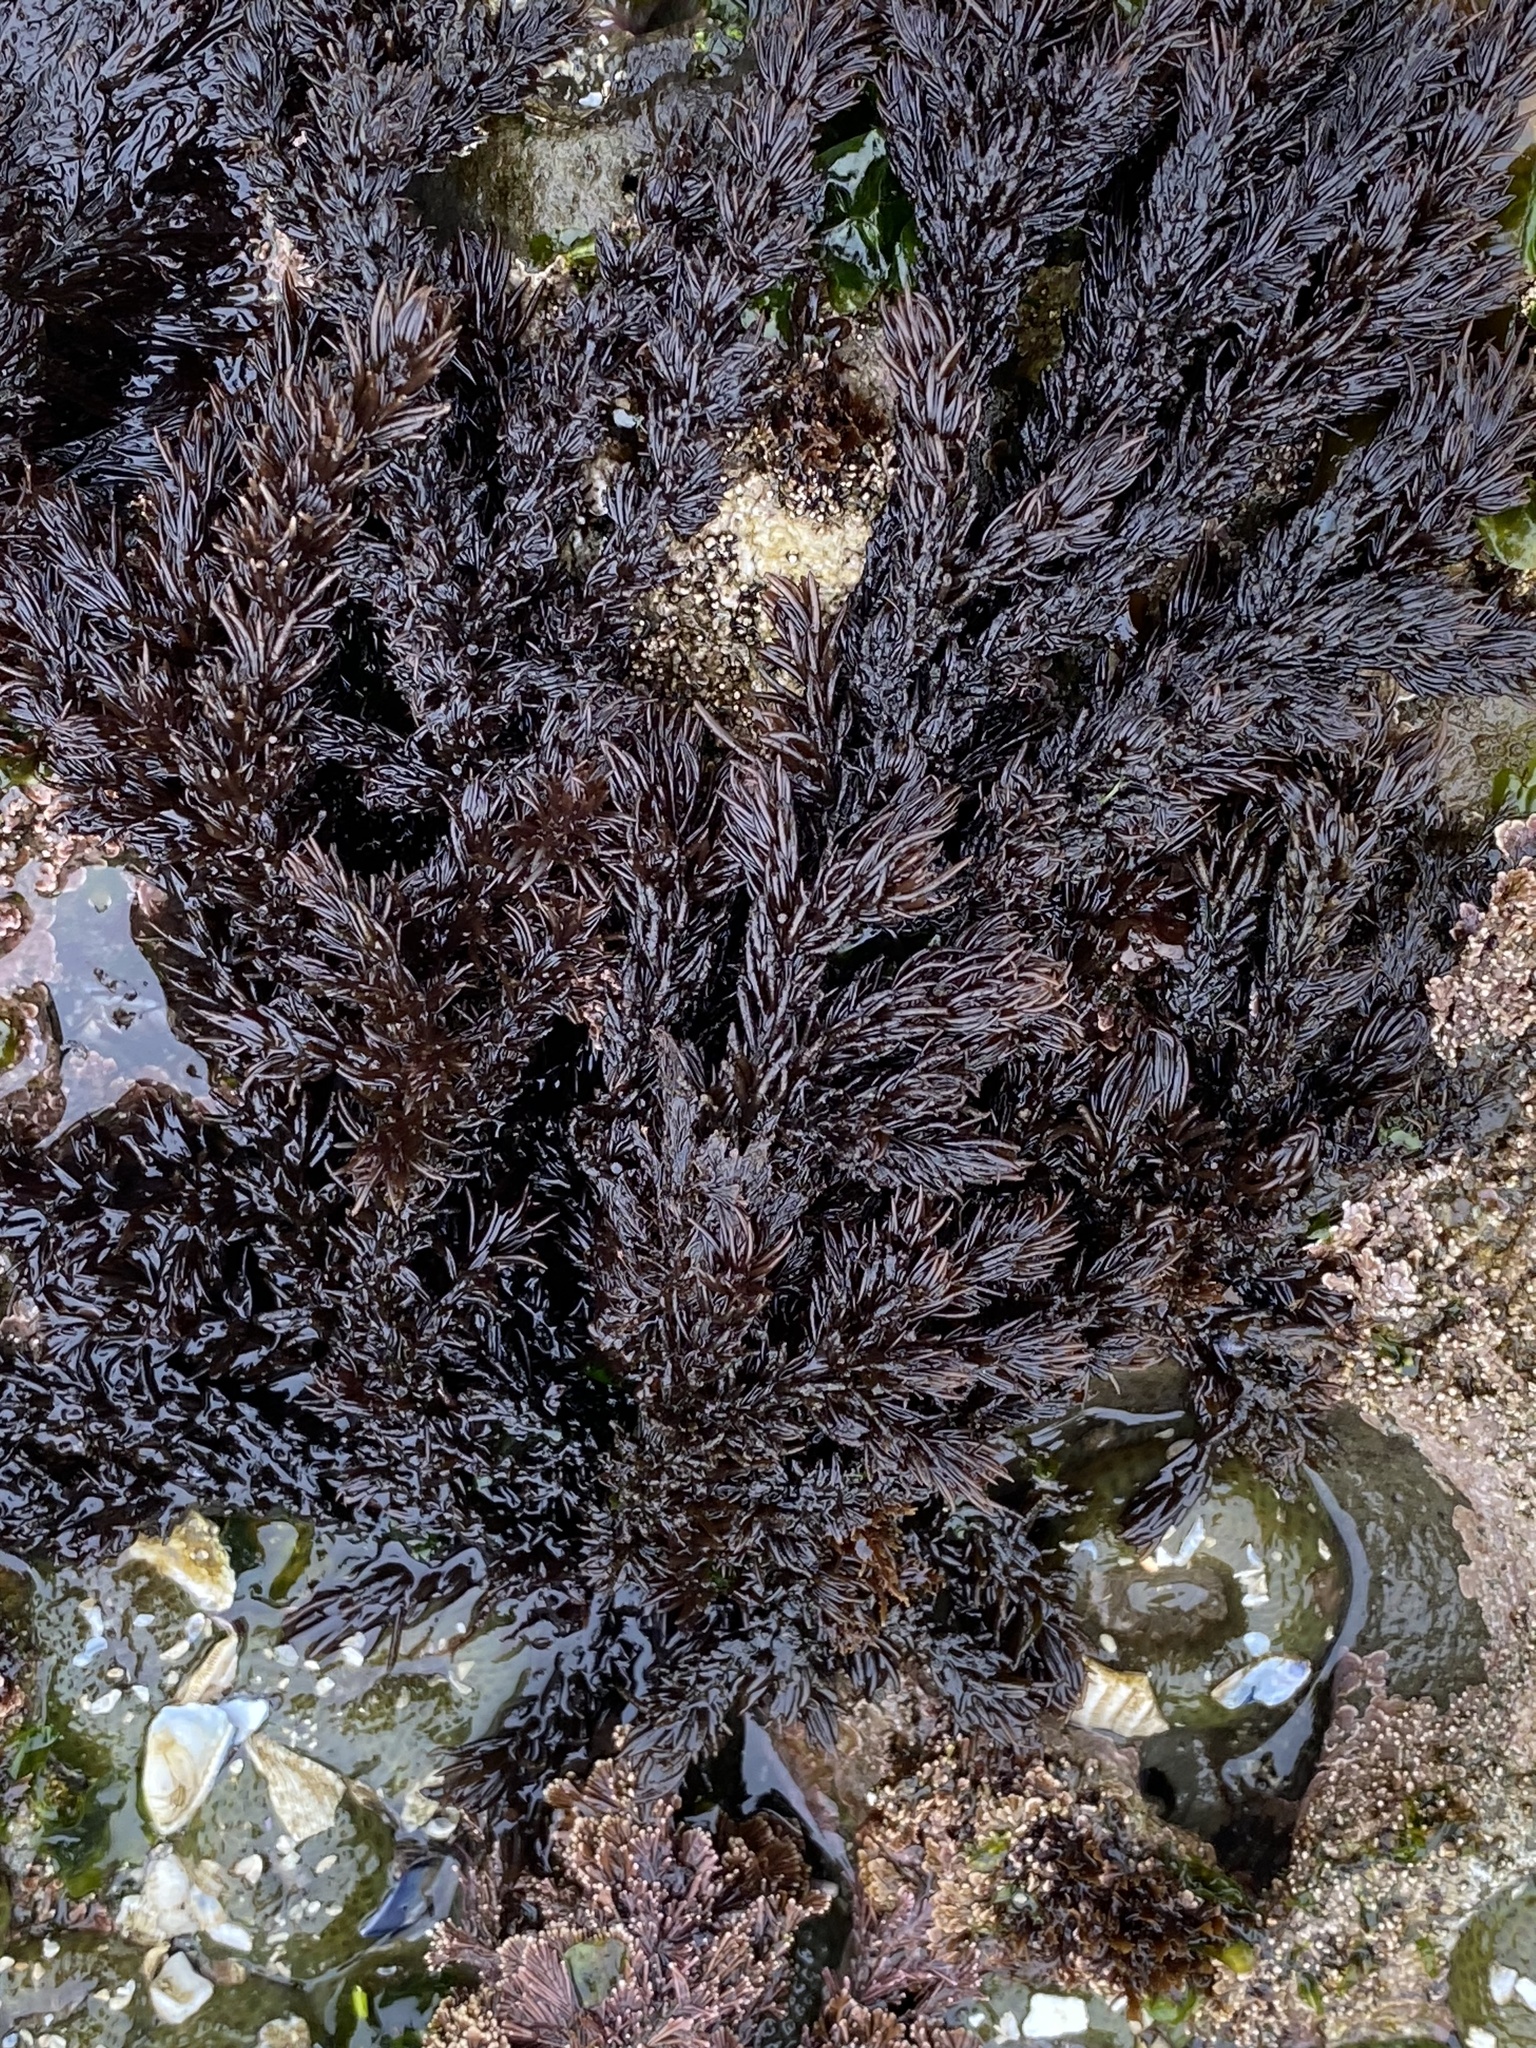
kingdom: Plantae
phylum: Rhodophyta
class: Florideophyceae
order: Ceramiales
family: Rhodomelaceae
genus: Neorhodomela
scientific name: Neorhodomela larix
